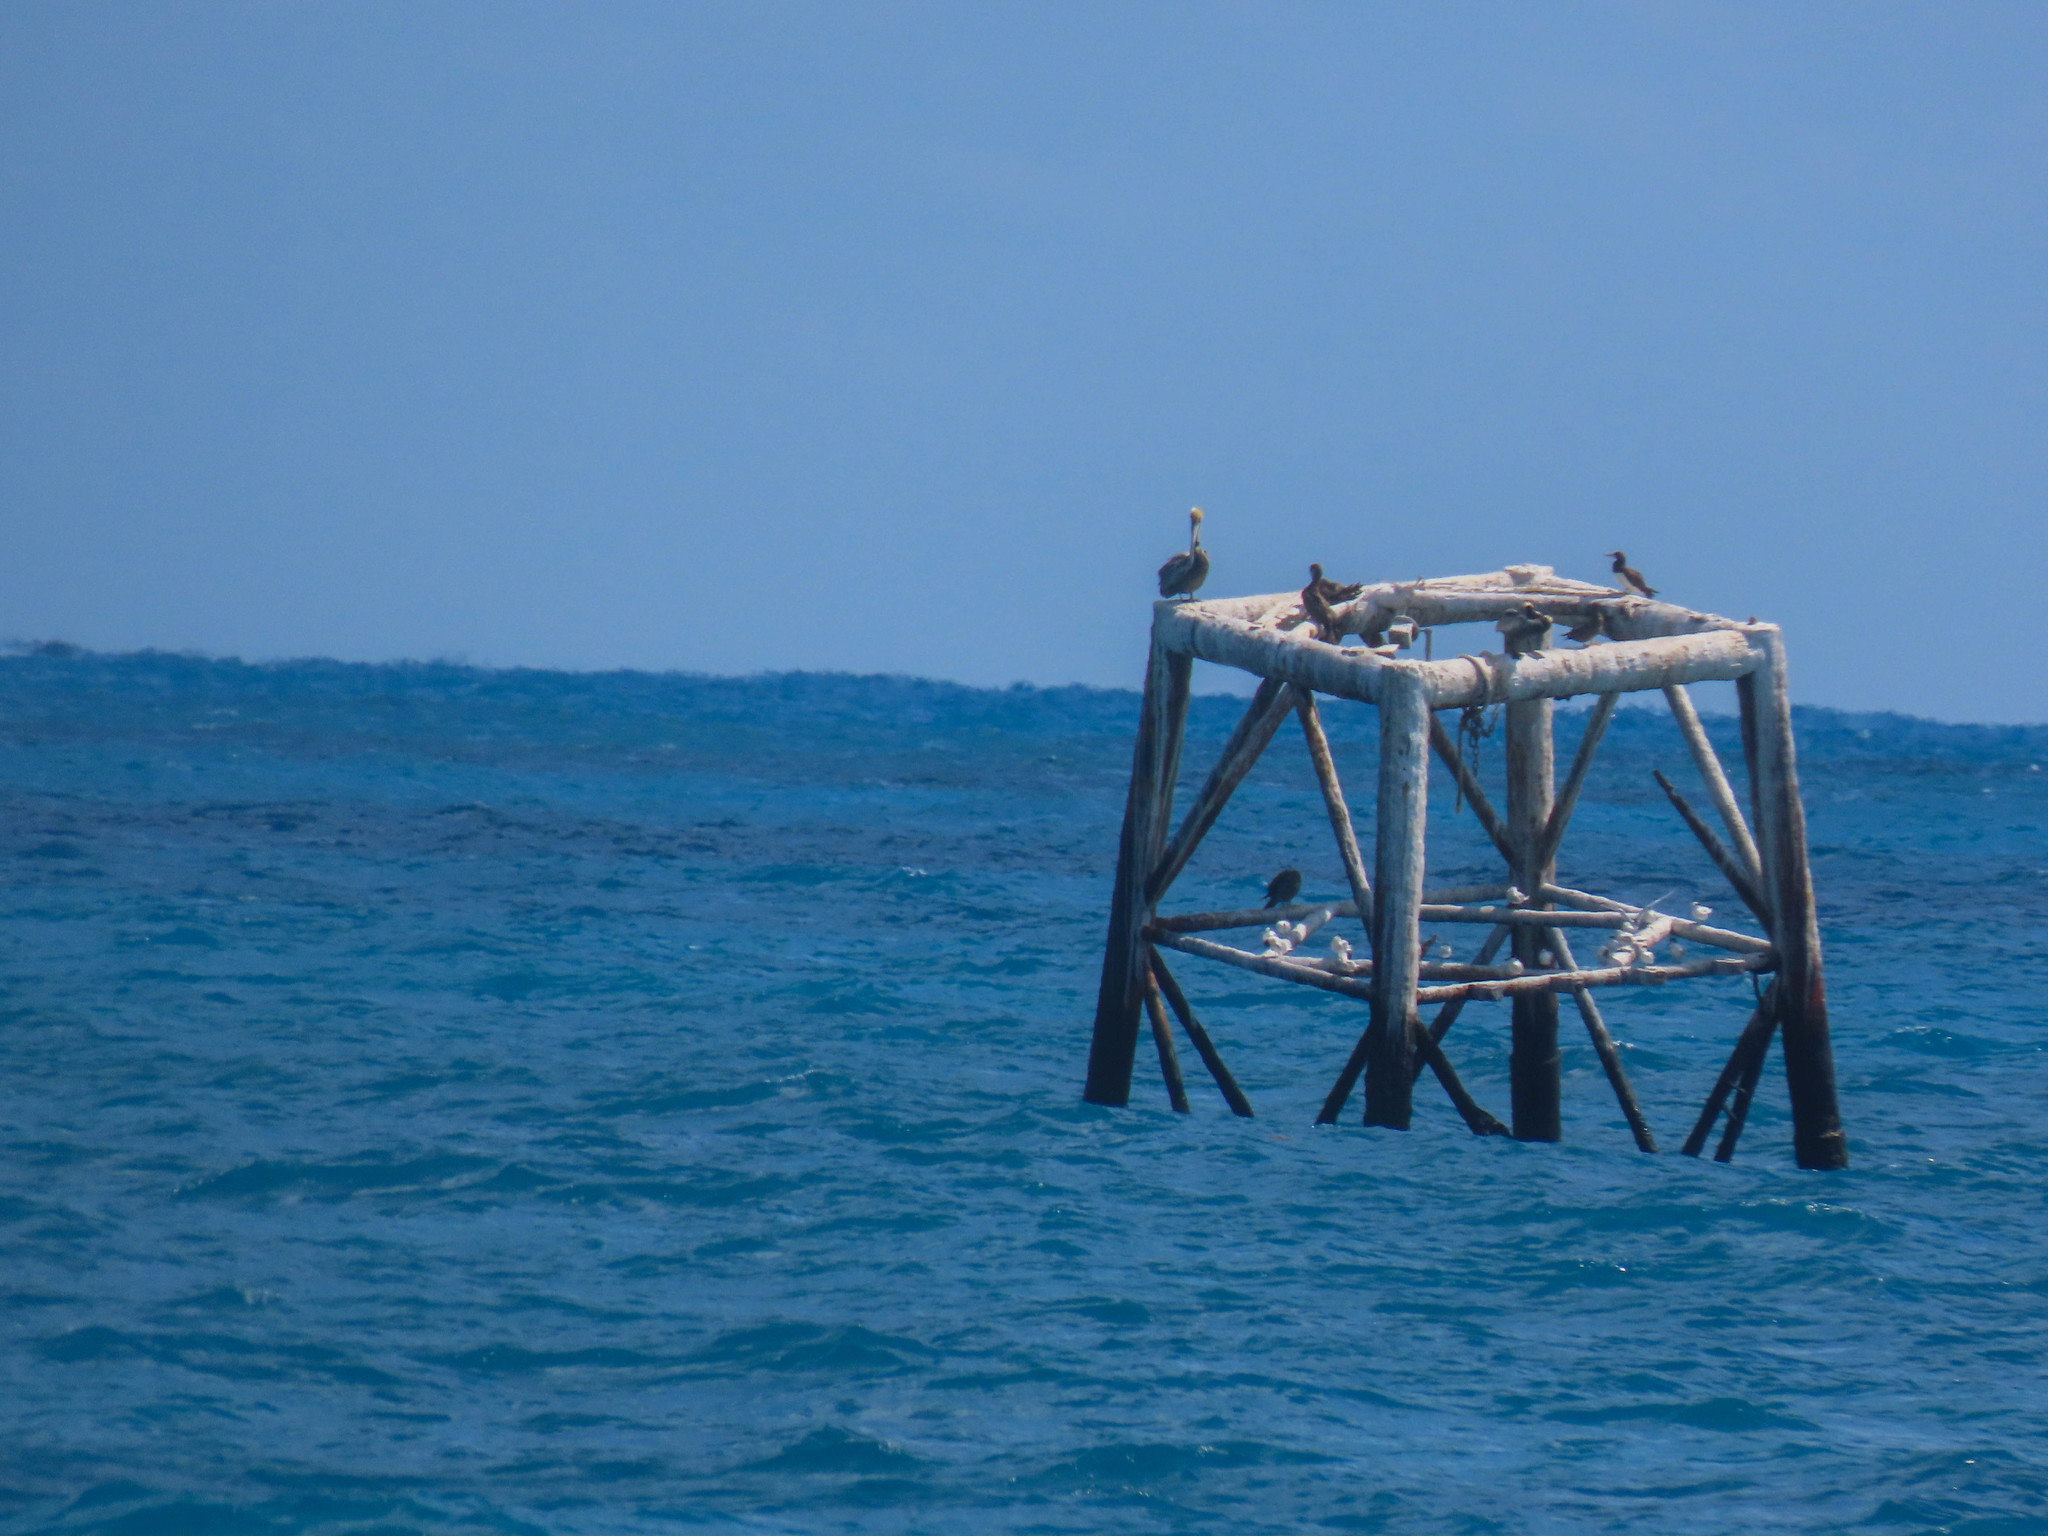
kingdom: Animalia
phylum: Chordata
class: Aves
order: Suliformes
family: Sulidae
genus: Sula
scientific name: Sula leucogaster
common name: Brown booby
